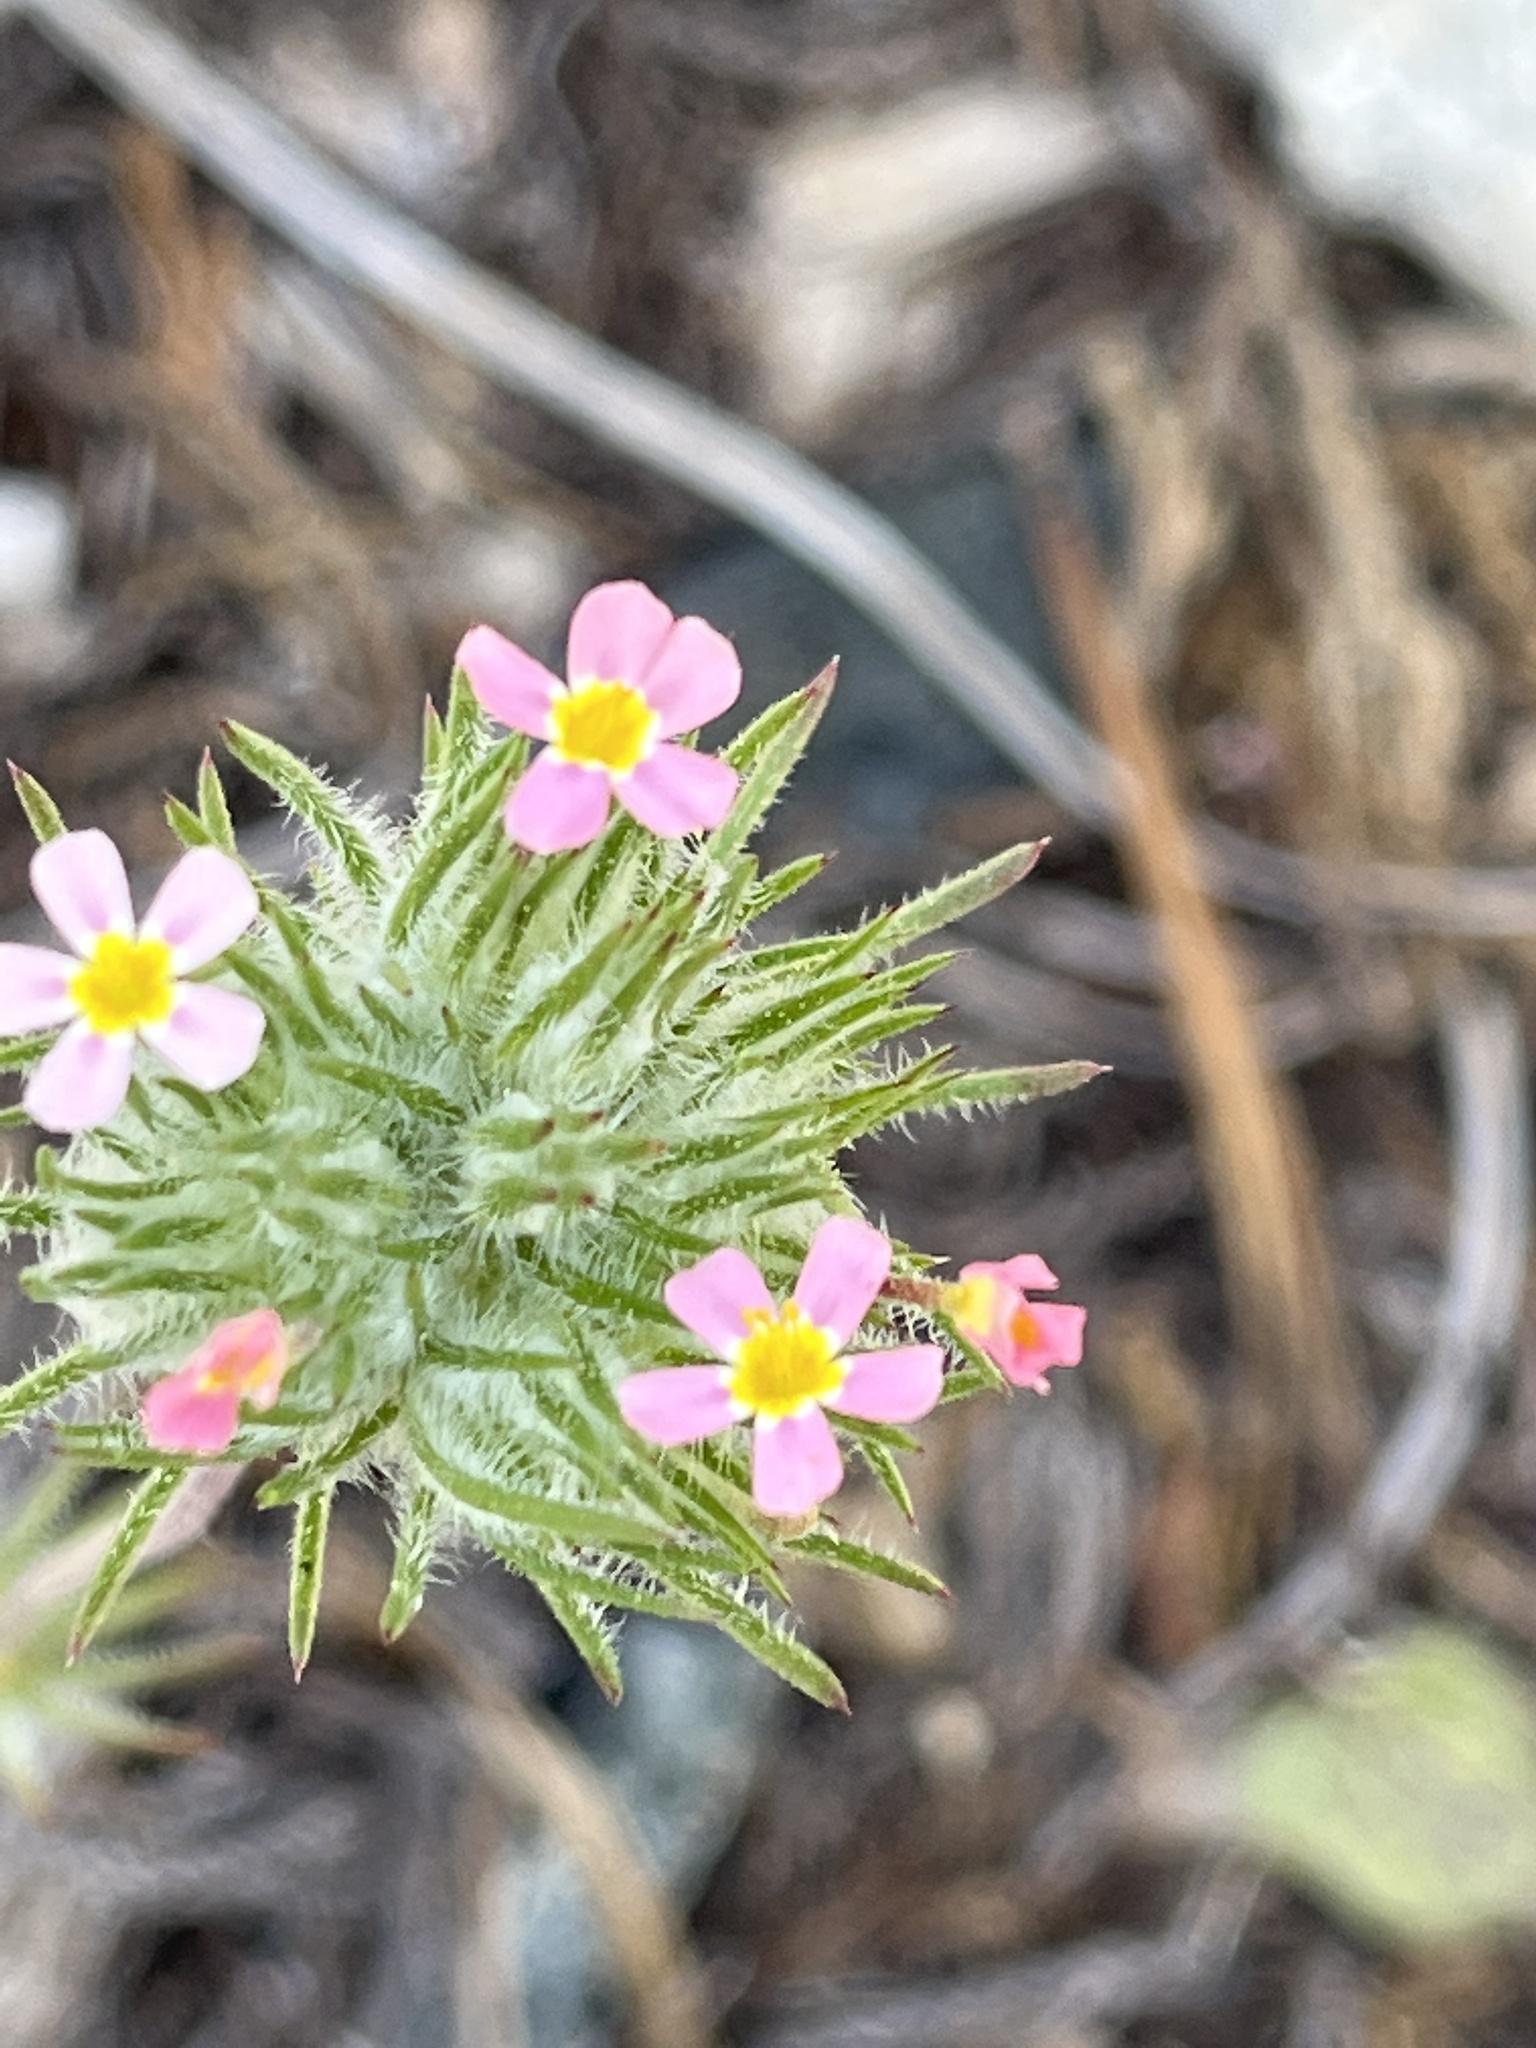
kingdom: Plantae
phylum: Tracheophyta
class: Magnoliopsida
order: Ericales
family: Polemoniaceae
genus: Leptosiphon
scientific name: Leptosiphon ciliatus
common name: Whiskerbrush
